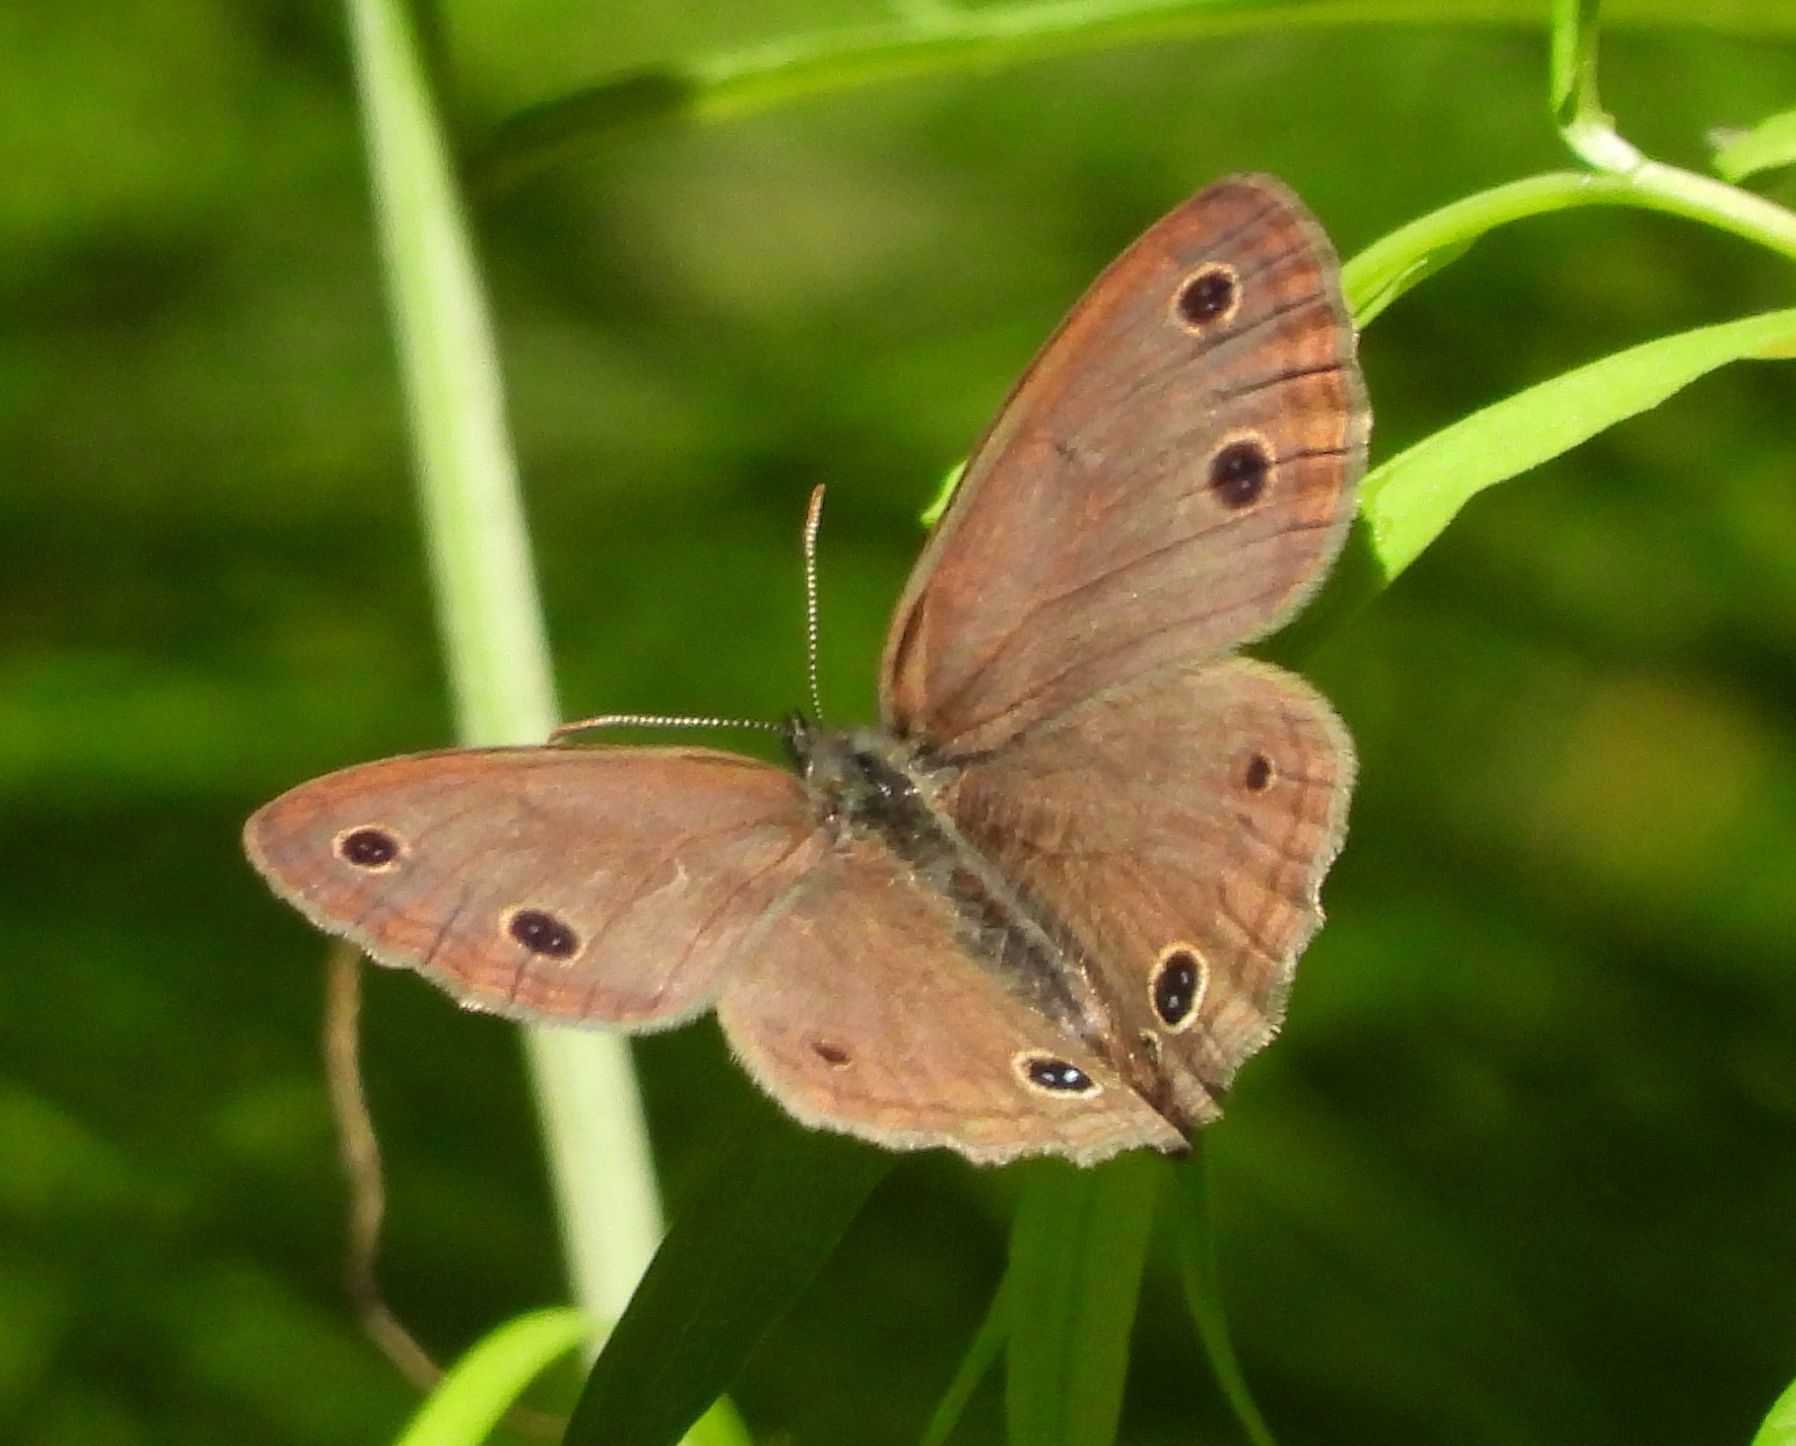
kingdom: Animalia
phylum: Arthropoda
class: Insecta
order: Lepidoptera
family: Nymphalidae
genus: Euptychia
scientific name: Euptychia cymela
